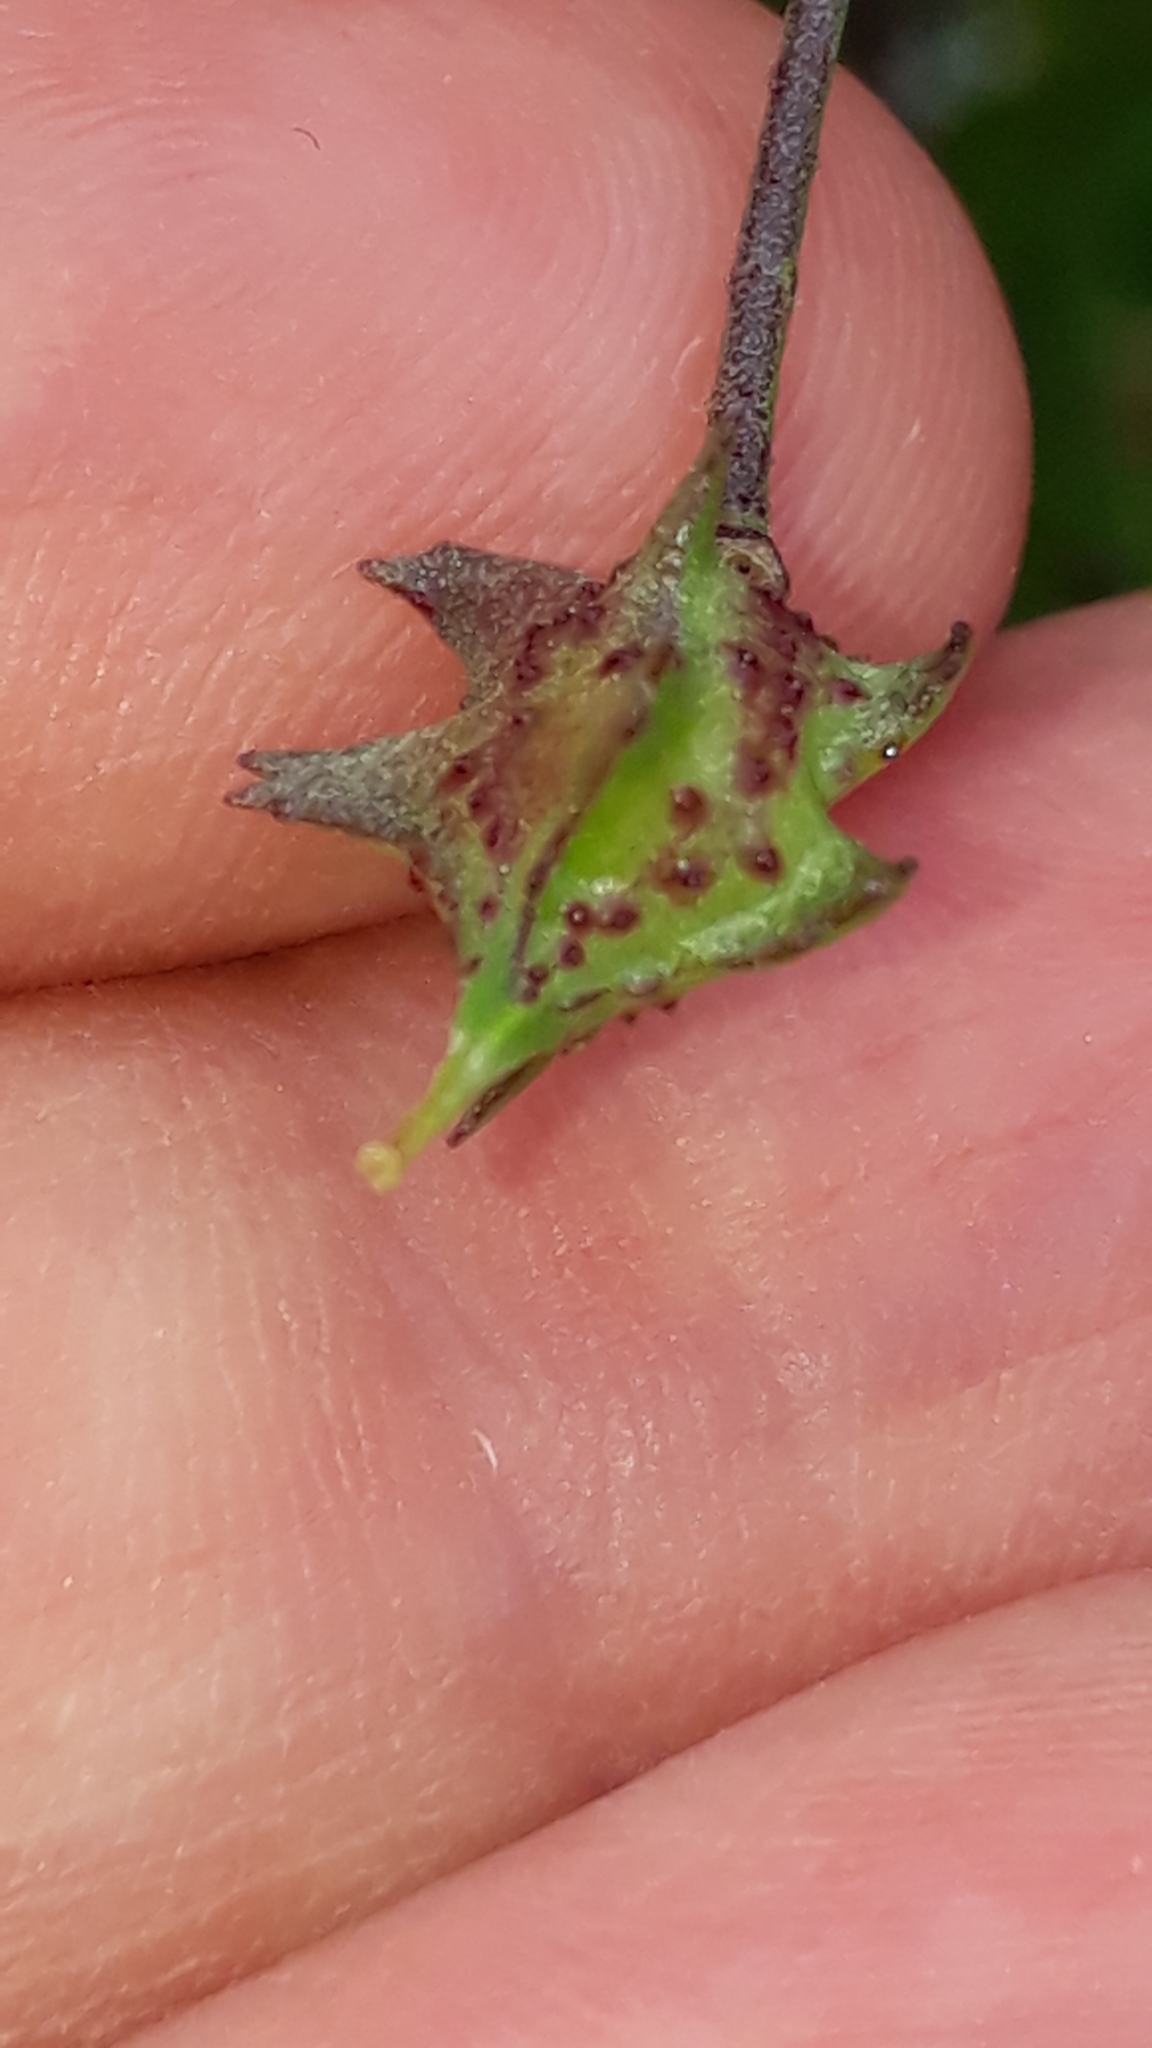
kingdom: Plantae
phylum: Tracheophyta
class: Magnoliopsida
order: Brassicales
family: Brassicaceae
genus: Bunias
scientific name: Bunias erucago
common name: Southern warty-cabbage
